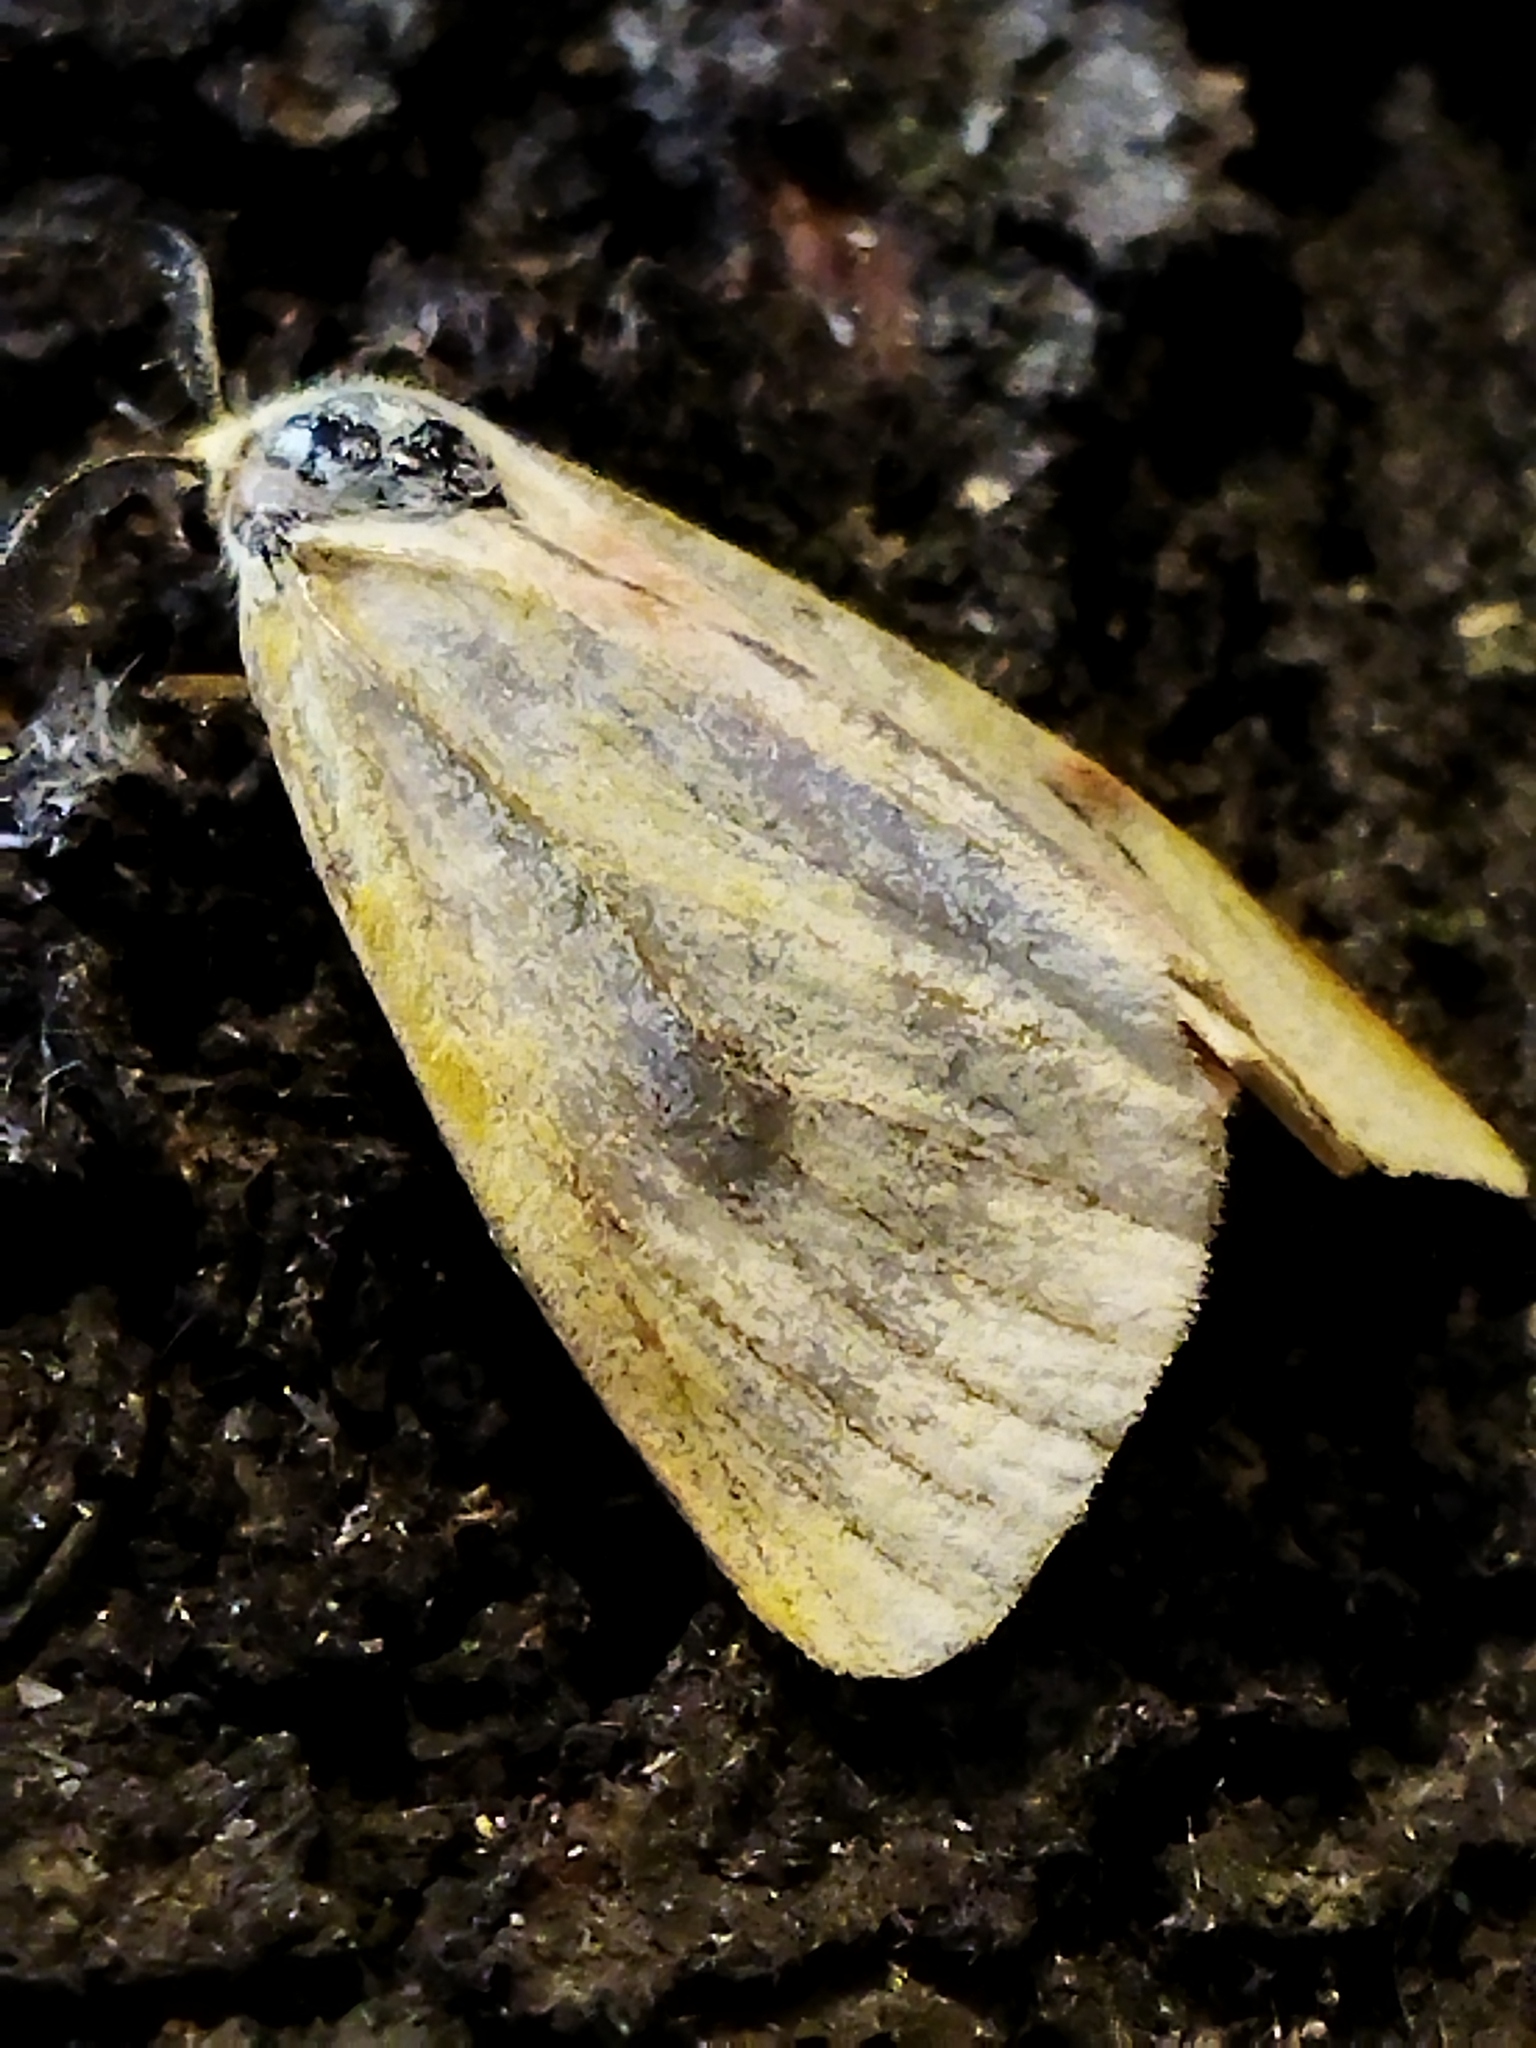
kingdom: Animalia
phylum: Arthropoda
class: Insecta
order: Lepidoptera
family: Erebidae
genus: Diacrisia
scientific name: Diacrisia sannio
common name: Clouded buff
